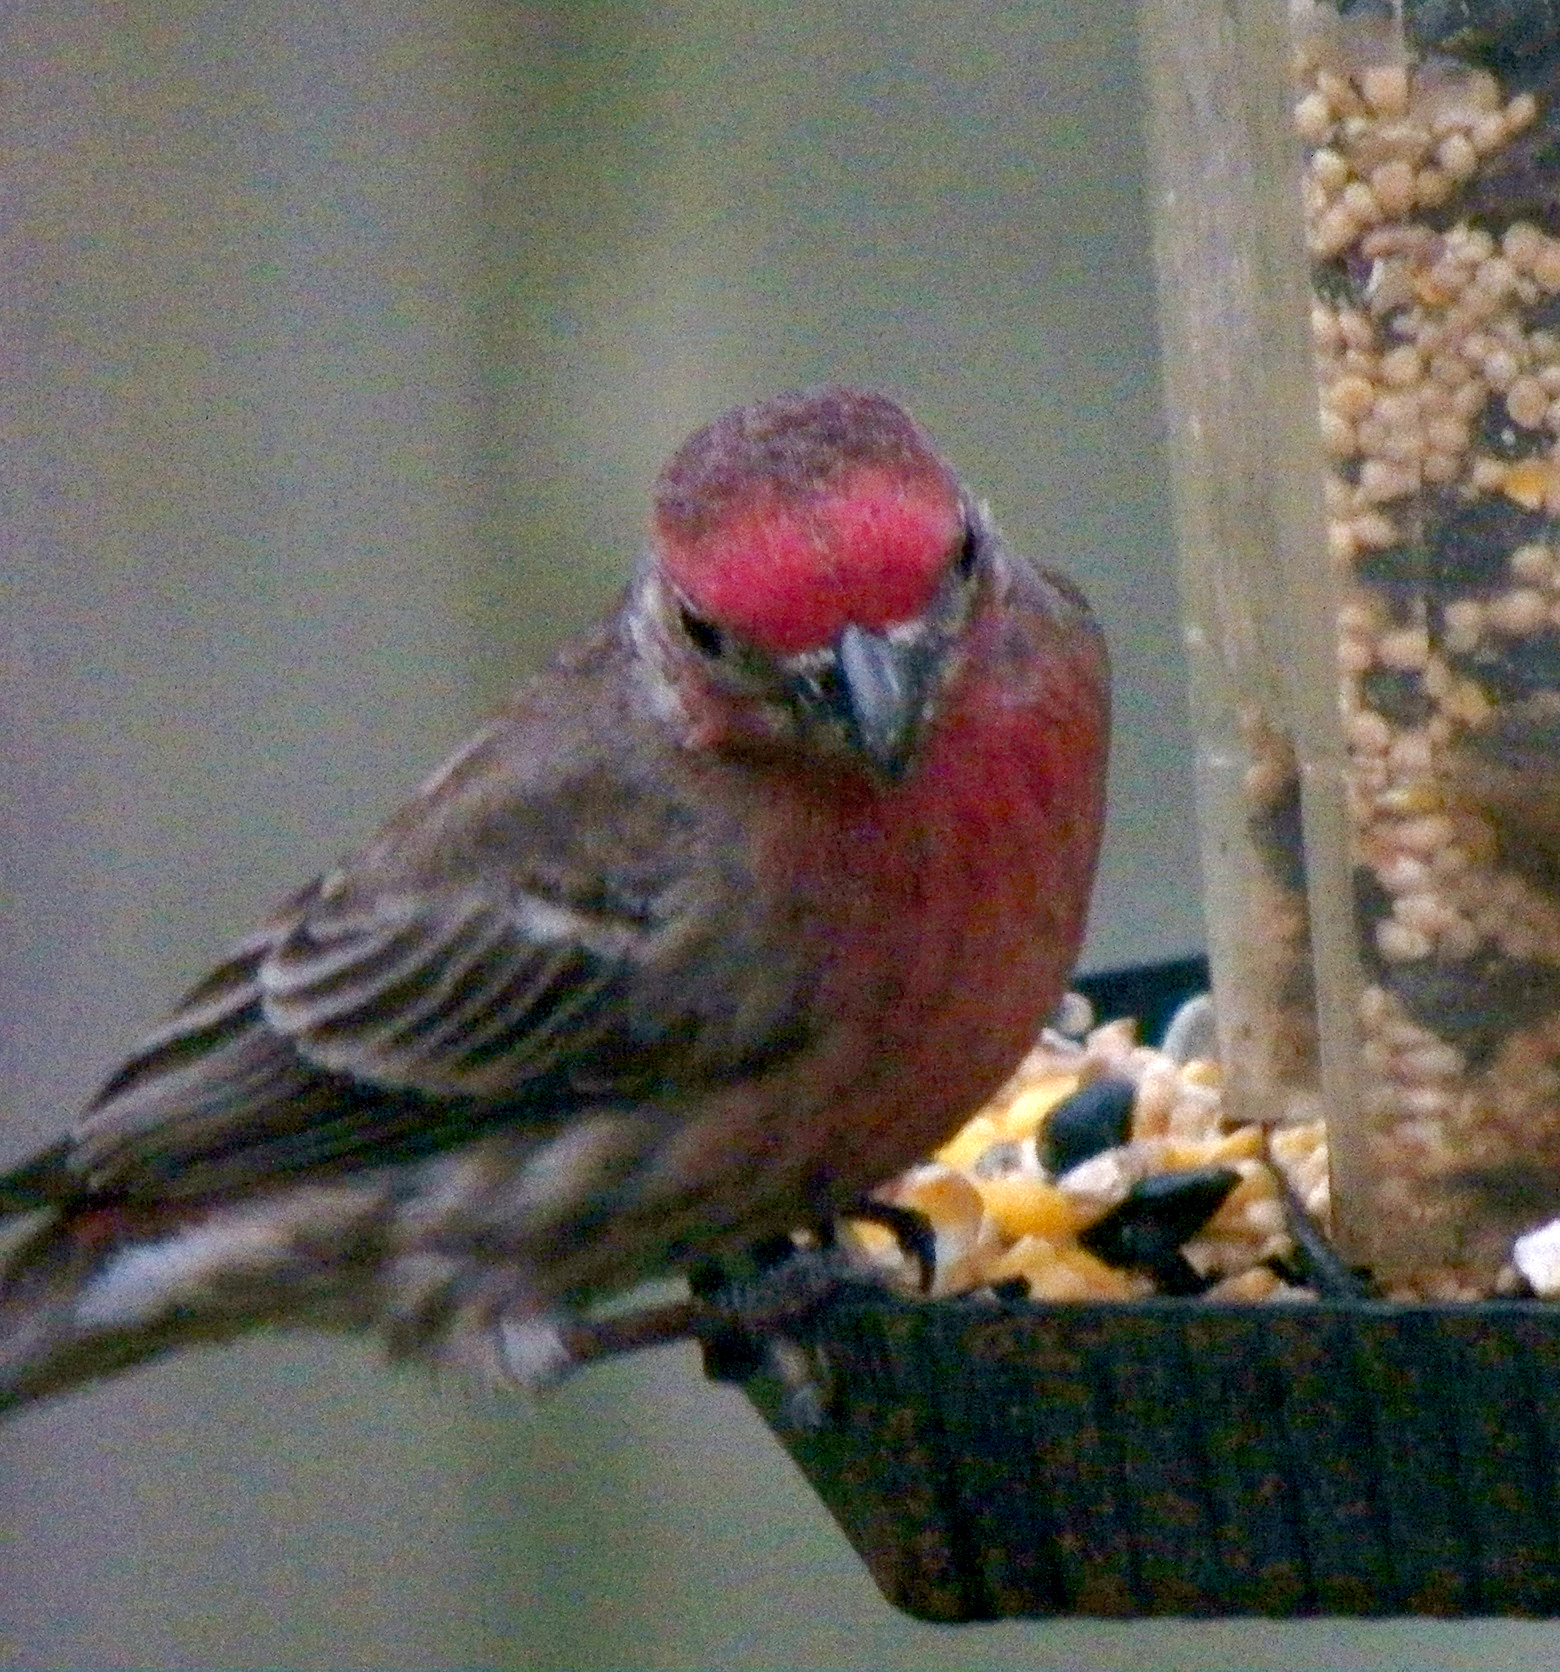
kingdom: Animalia
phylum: Chordata
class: Aves
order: Passeriformes
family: Fringillidae
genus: Haemorhous
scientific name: Haemorhous mexicanus
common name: House finch
